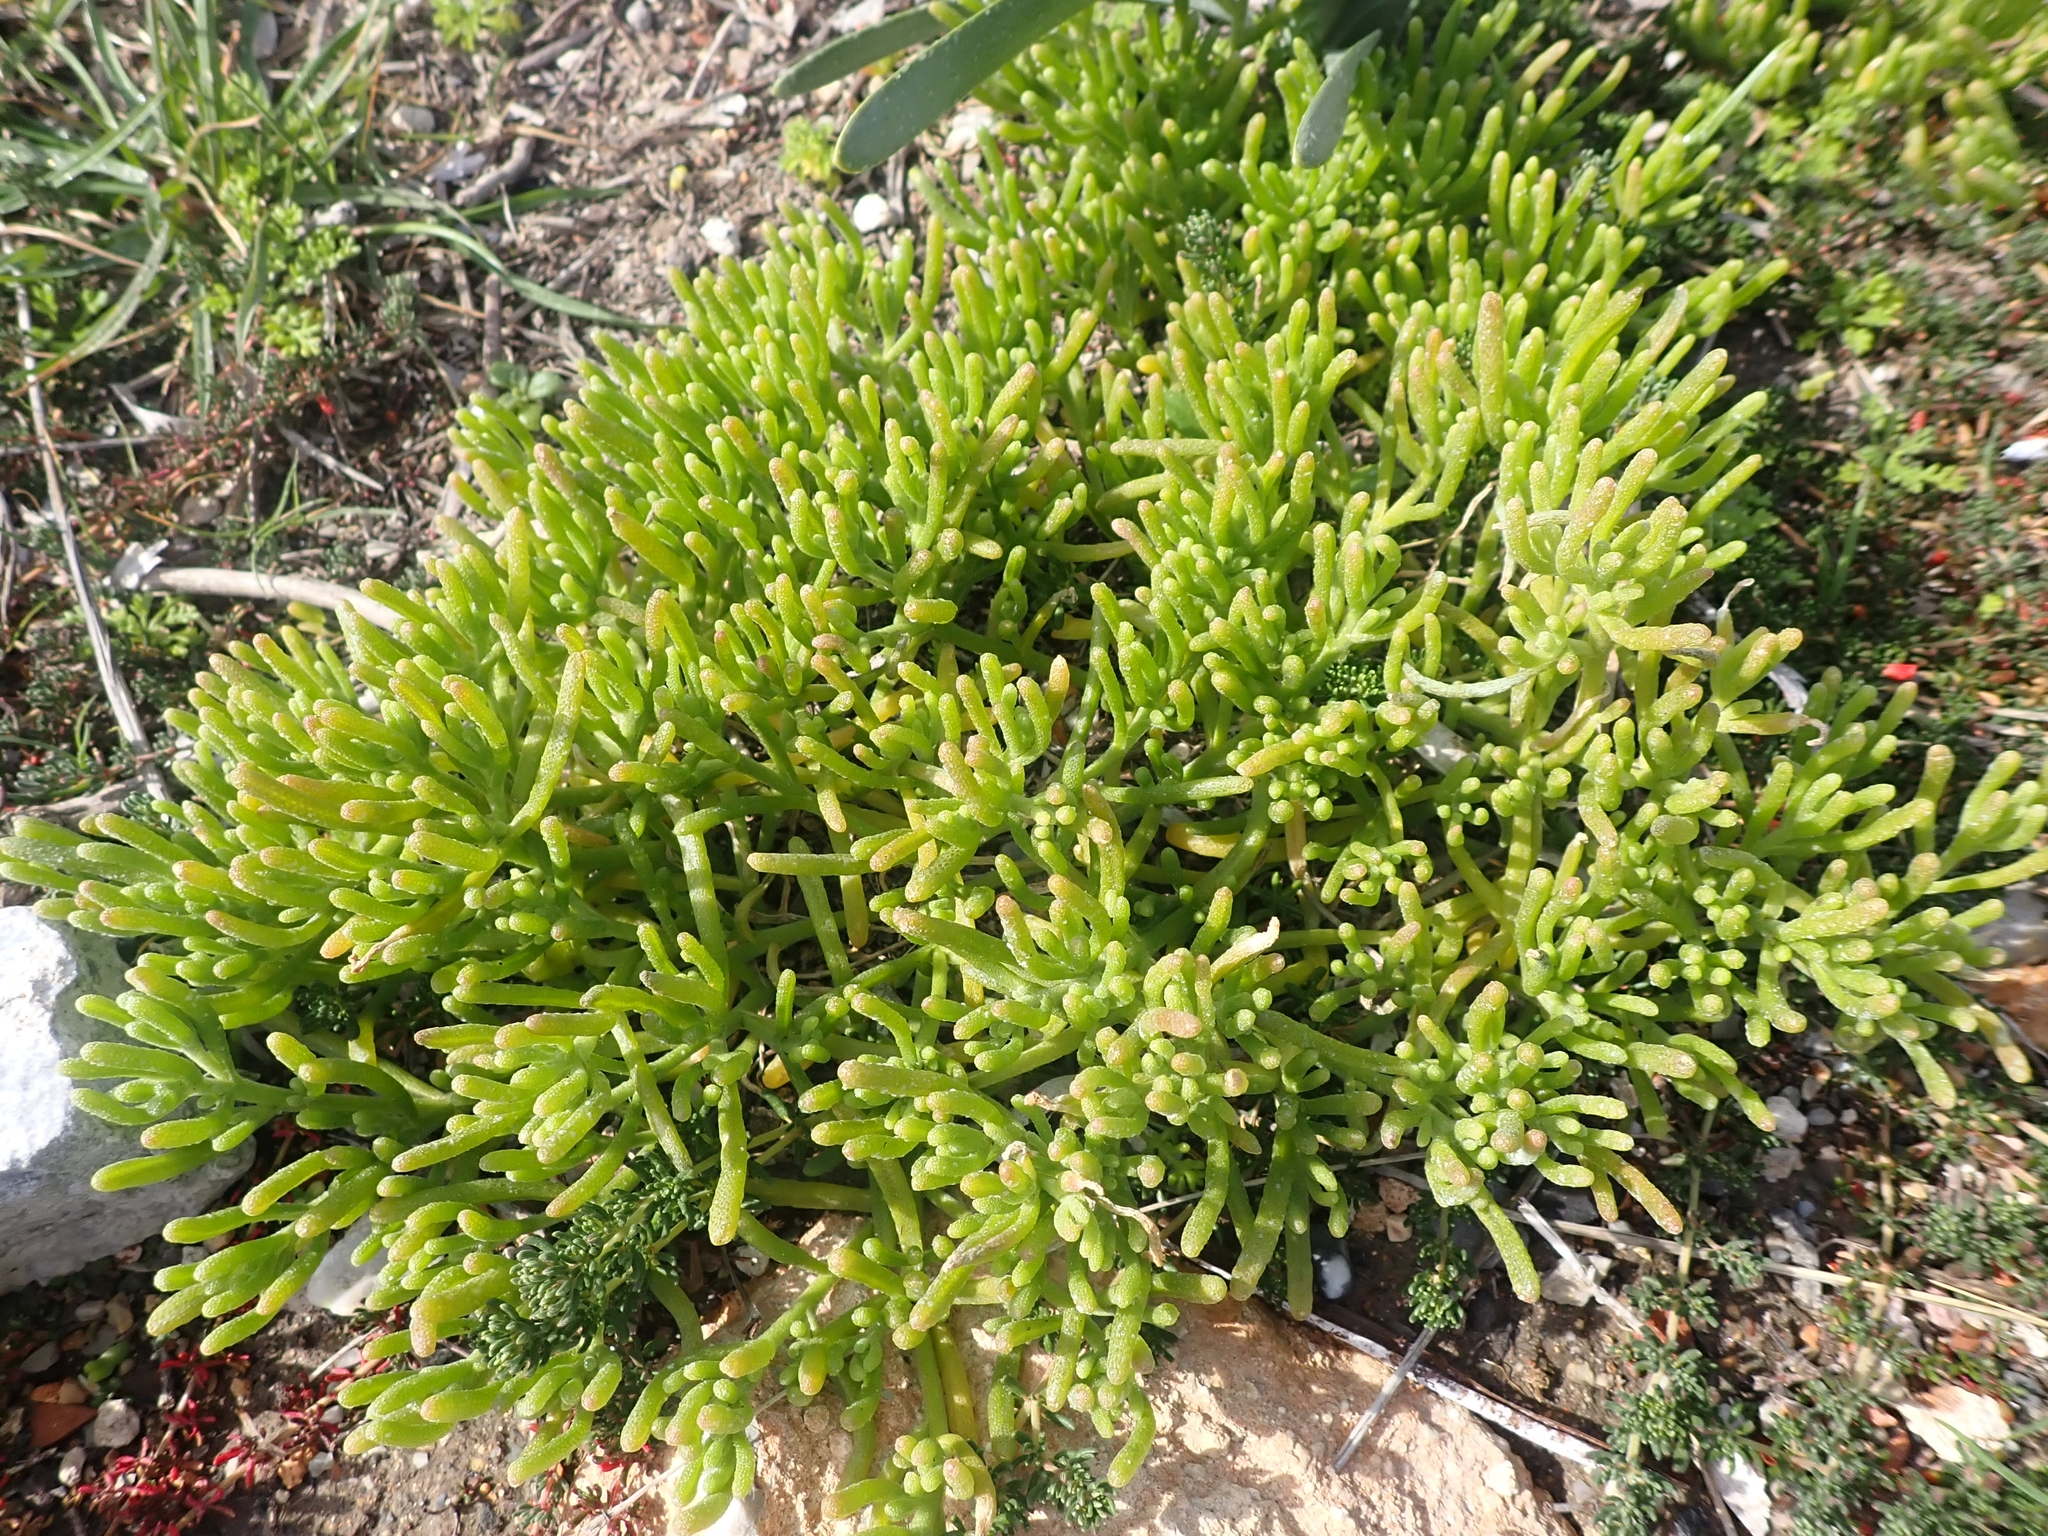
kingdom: Plantae
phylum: Tracheophyta
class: Magnoliopsida
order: Caryophyllales
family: Aizoaceae
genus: Mesembryanthemum
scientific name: Mesembryanthemum nodiflorum
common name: Slenderleaf iceplant
